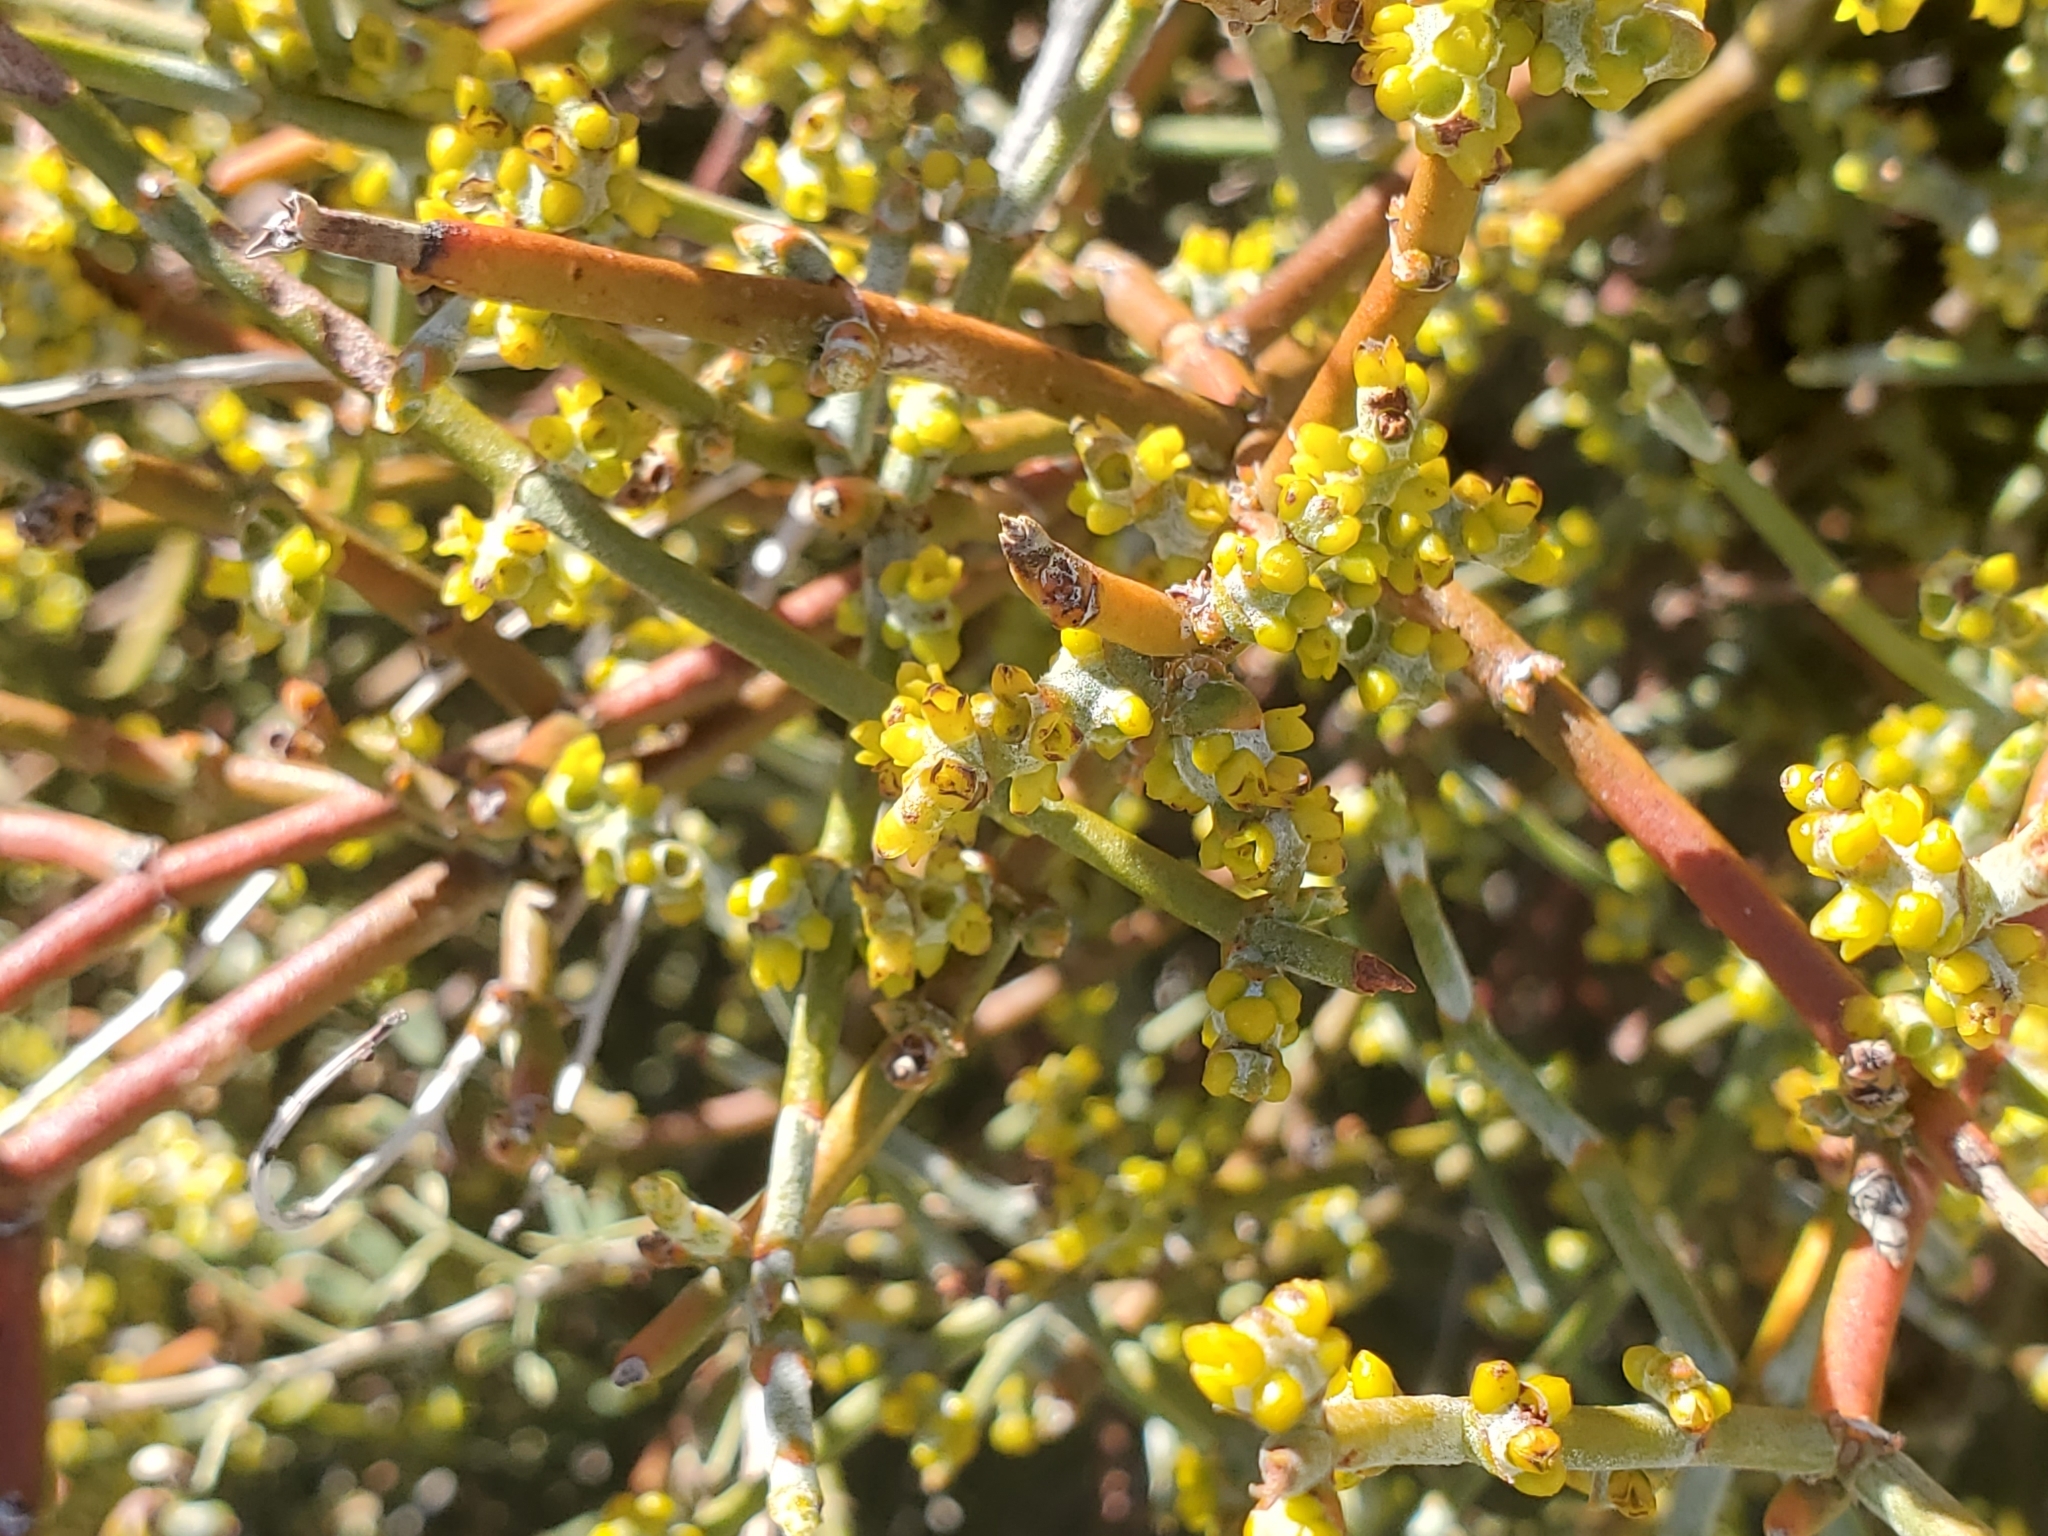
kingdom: Plantae
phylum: Tracheophyta
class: Magnoliopsida
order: Santalales
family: Viscaceae
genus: Phoradendron
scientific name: Phoradendron californicum
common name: Acacia mistletoe
